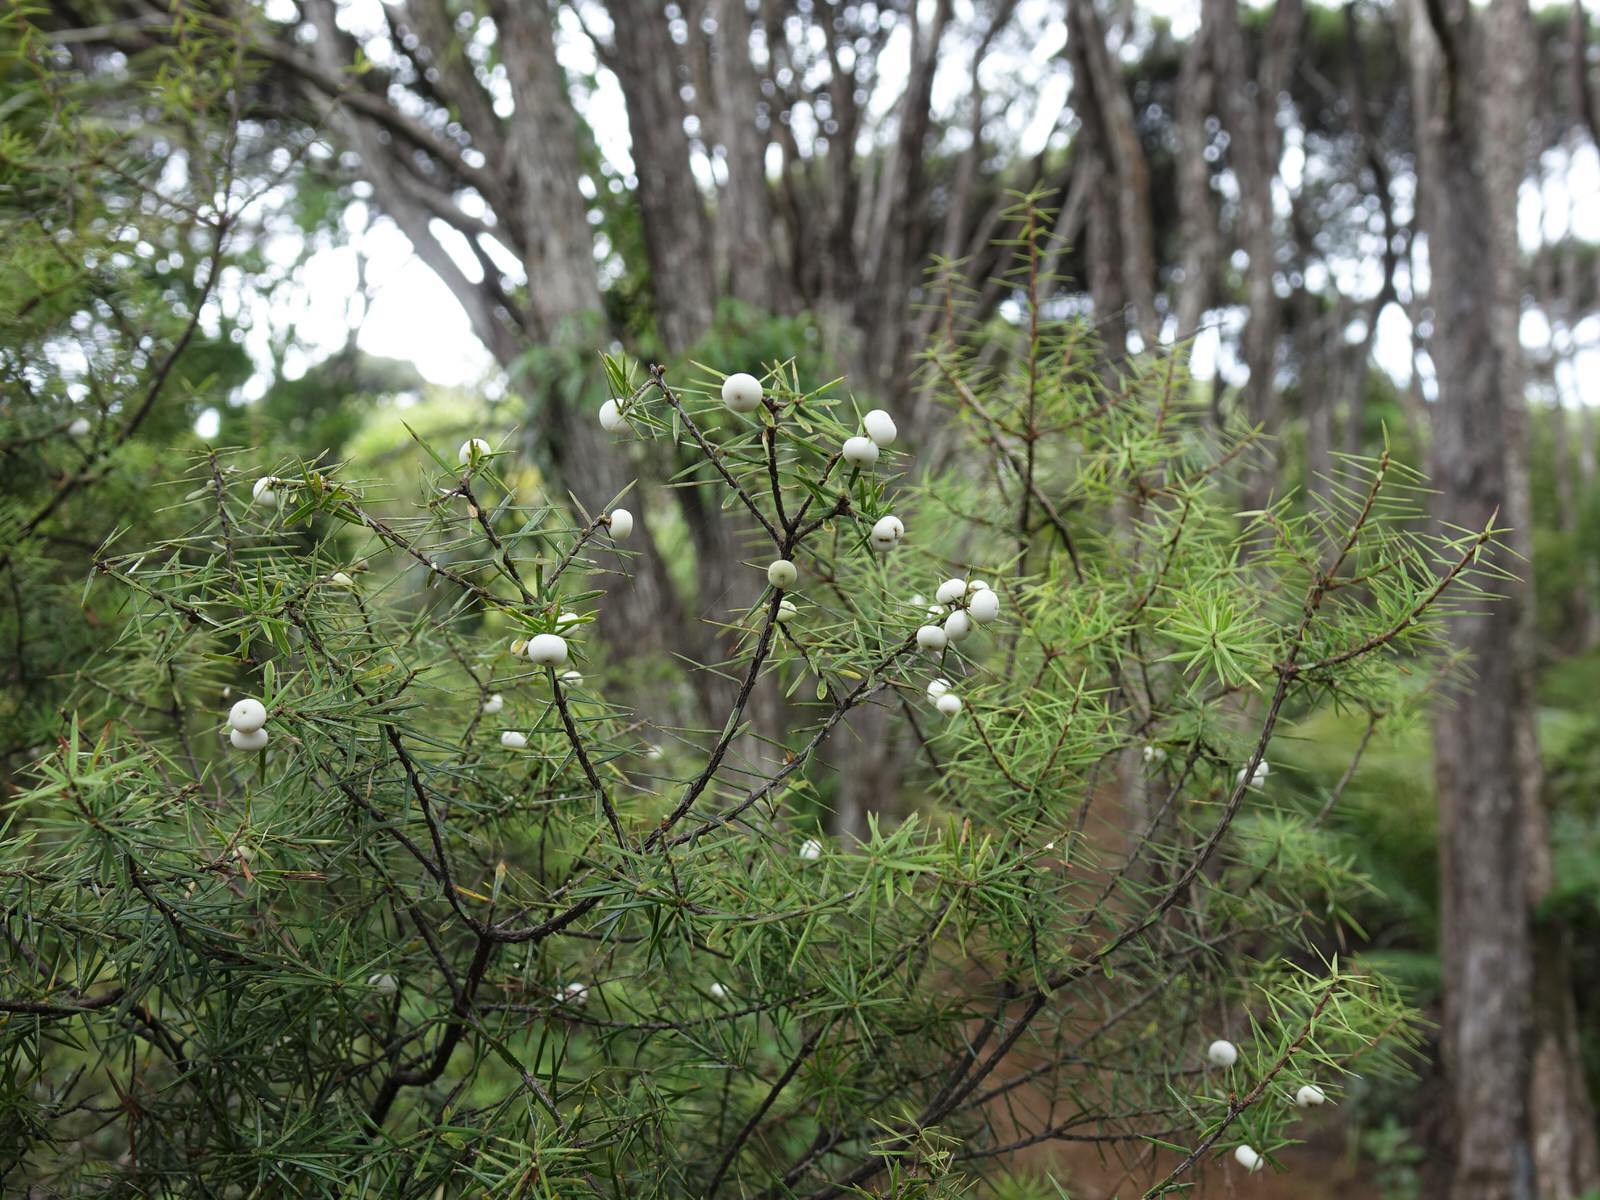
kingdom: Plantae
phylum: Tracheophyta
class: Magnoliopsida
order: Ericales
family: Ericaceae
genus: Leptecophylla
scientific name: Leptecophylla juniperina
